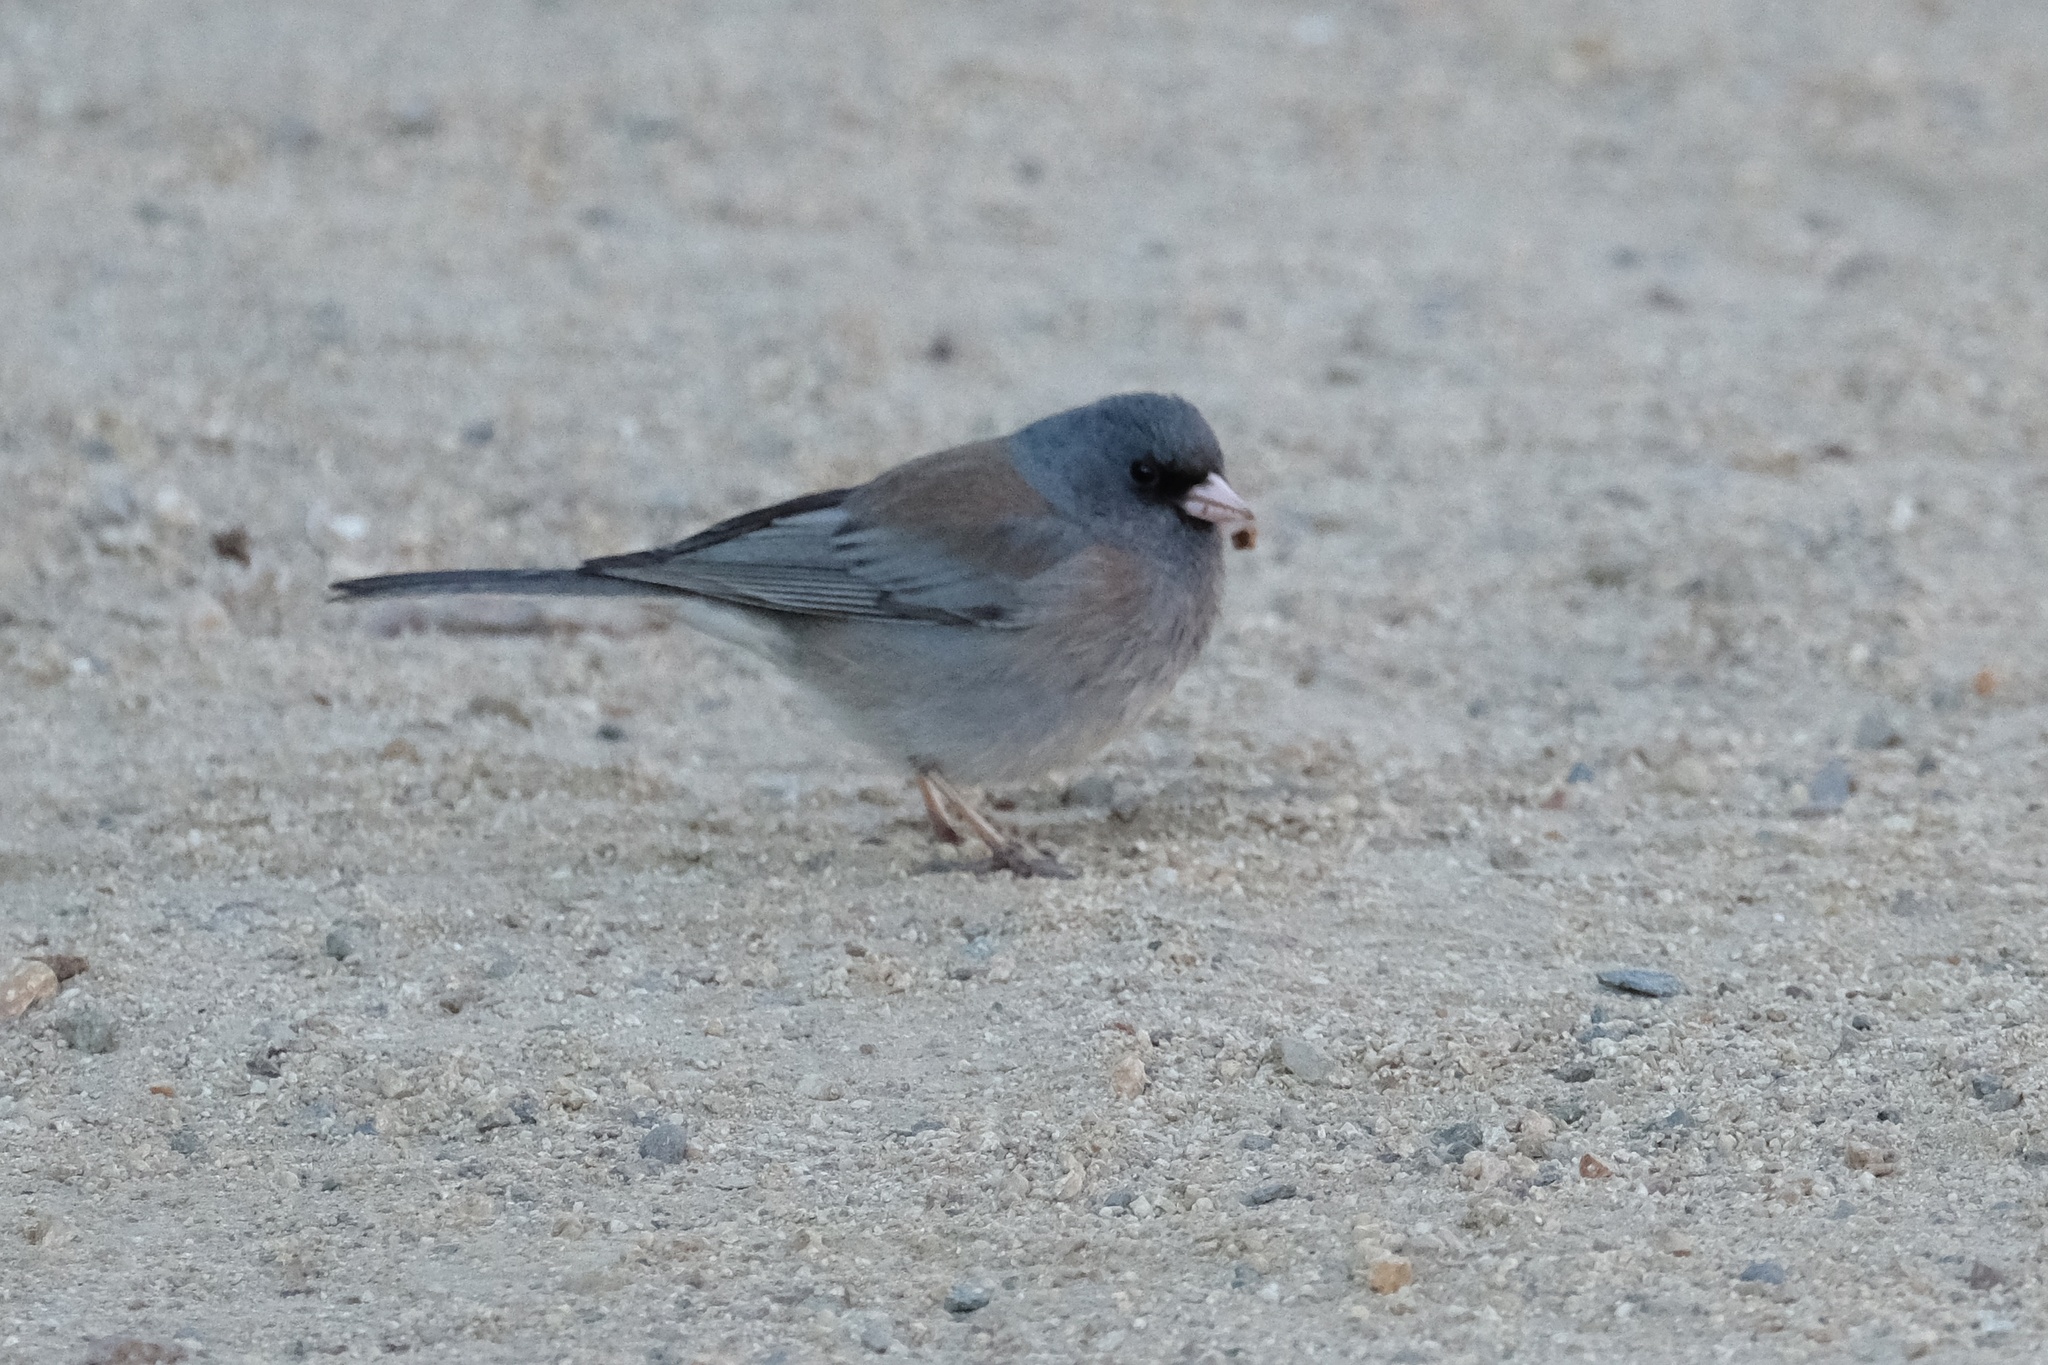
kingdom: Animalia
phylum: Chordata
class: Aves
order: Passeriformes
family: Passerellidae
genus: Junco
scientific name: Junco
